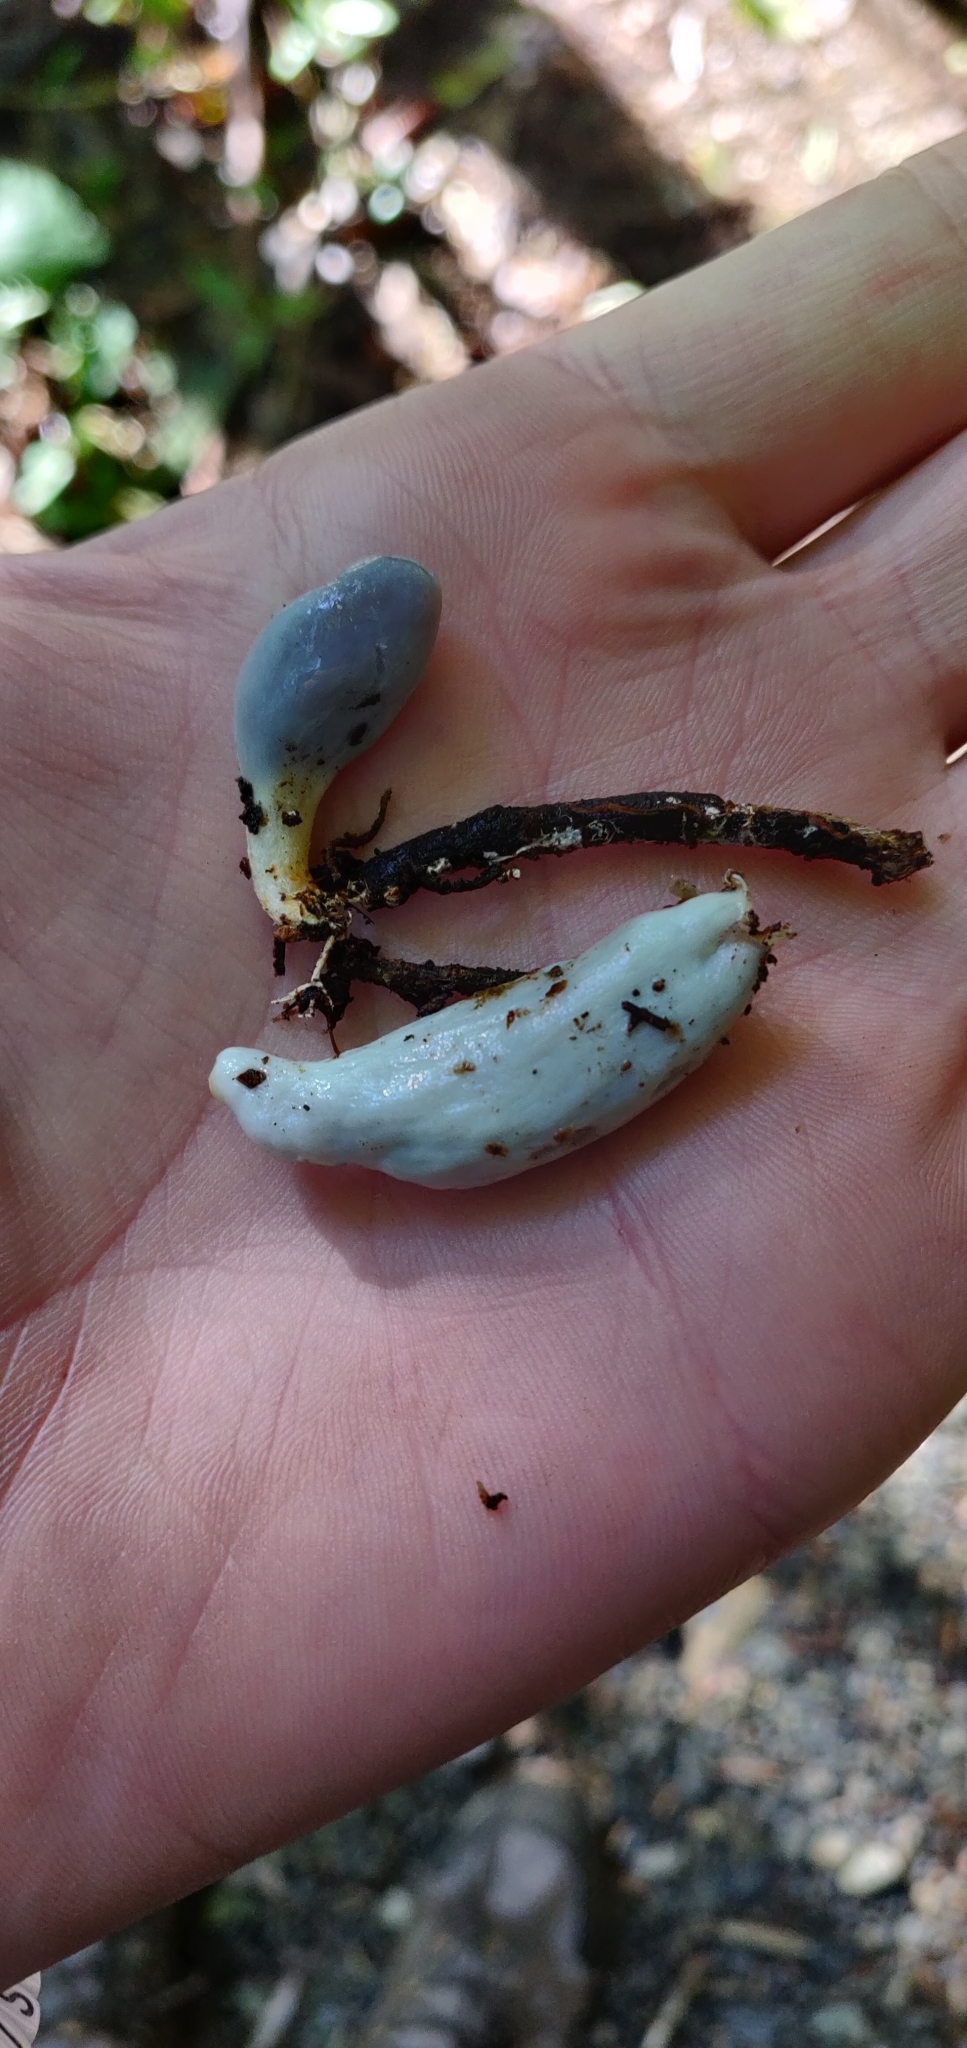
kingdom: Fungi
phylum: Basidiomycota
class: Agaricomycetes
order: Agaricales
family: Agaricaceae
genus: Clavogaster
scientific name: Clavogaster virescens
